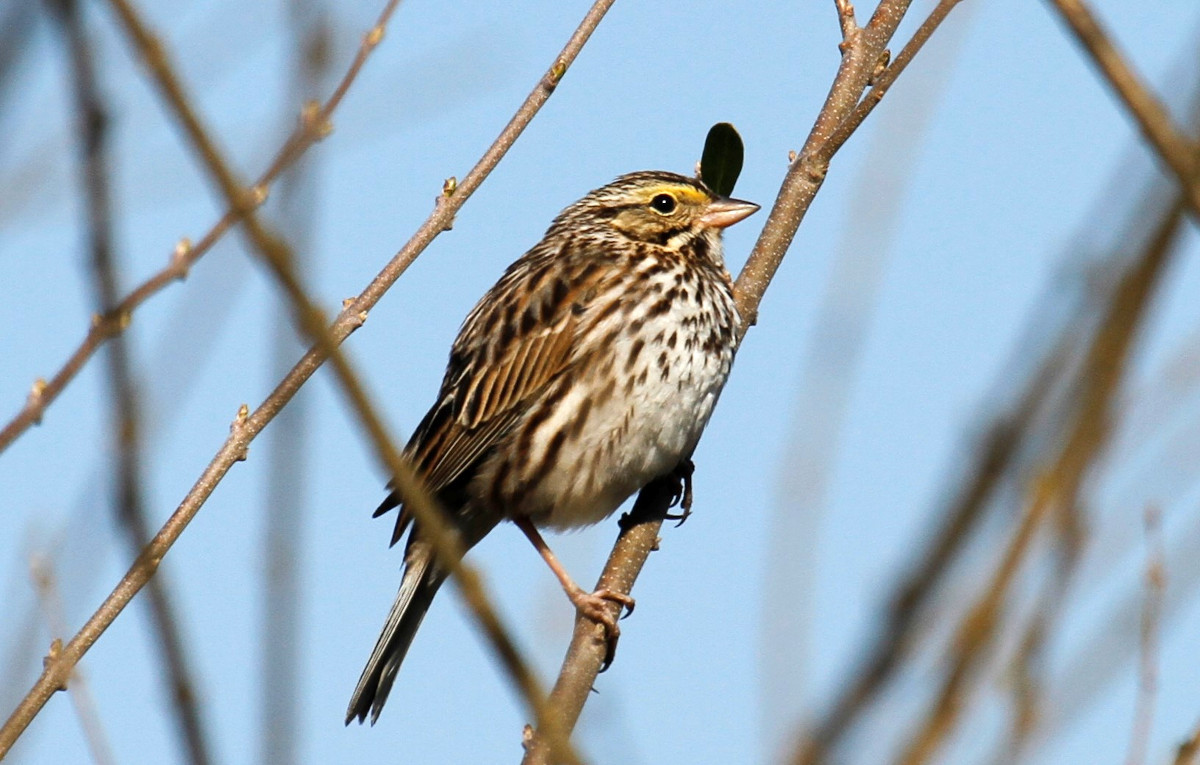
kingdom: Animalia
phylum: Chordata
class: Aves
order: Passeriformes
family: Passerellidae
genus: Passerculus
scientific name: Passerculus sandwichensis
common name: Savannah sparrow
